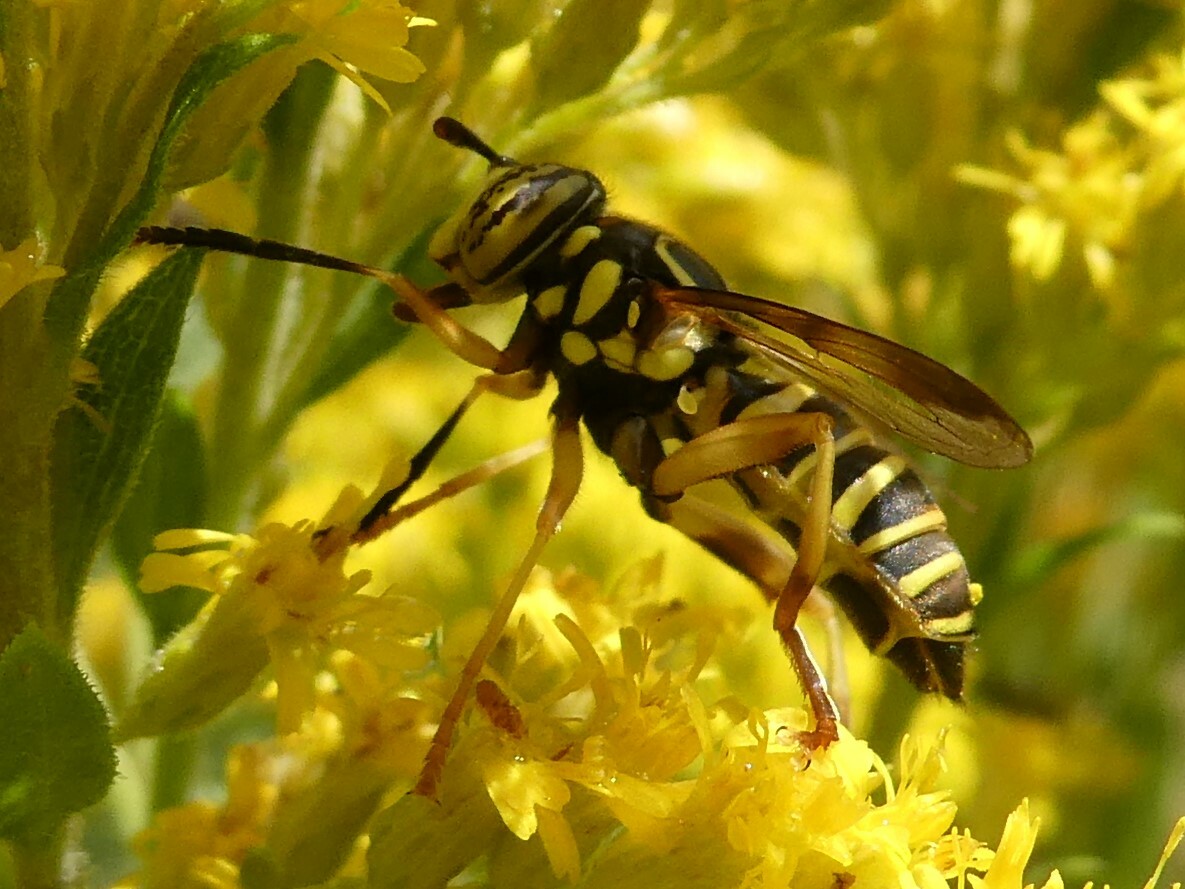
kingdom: Animalia
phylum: Arthropoda
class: Insecta
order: Diptera
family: Syrphidae
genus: Spilomyia
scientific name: Spilomyia longicornis
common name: Eastern hornet fly
